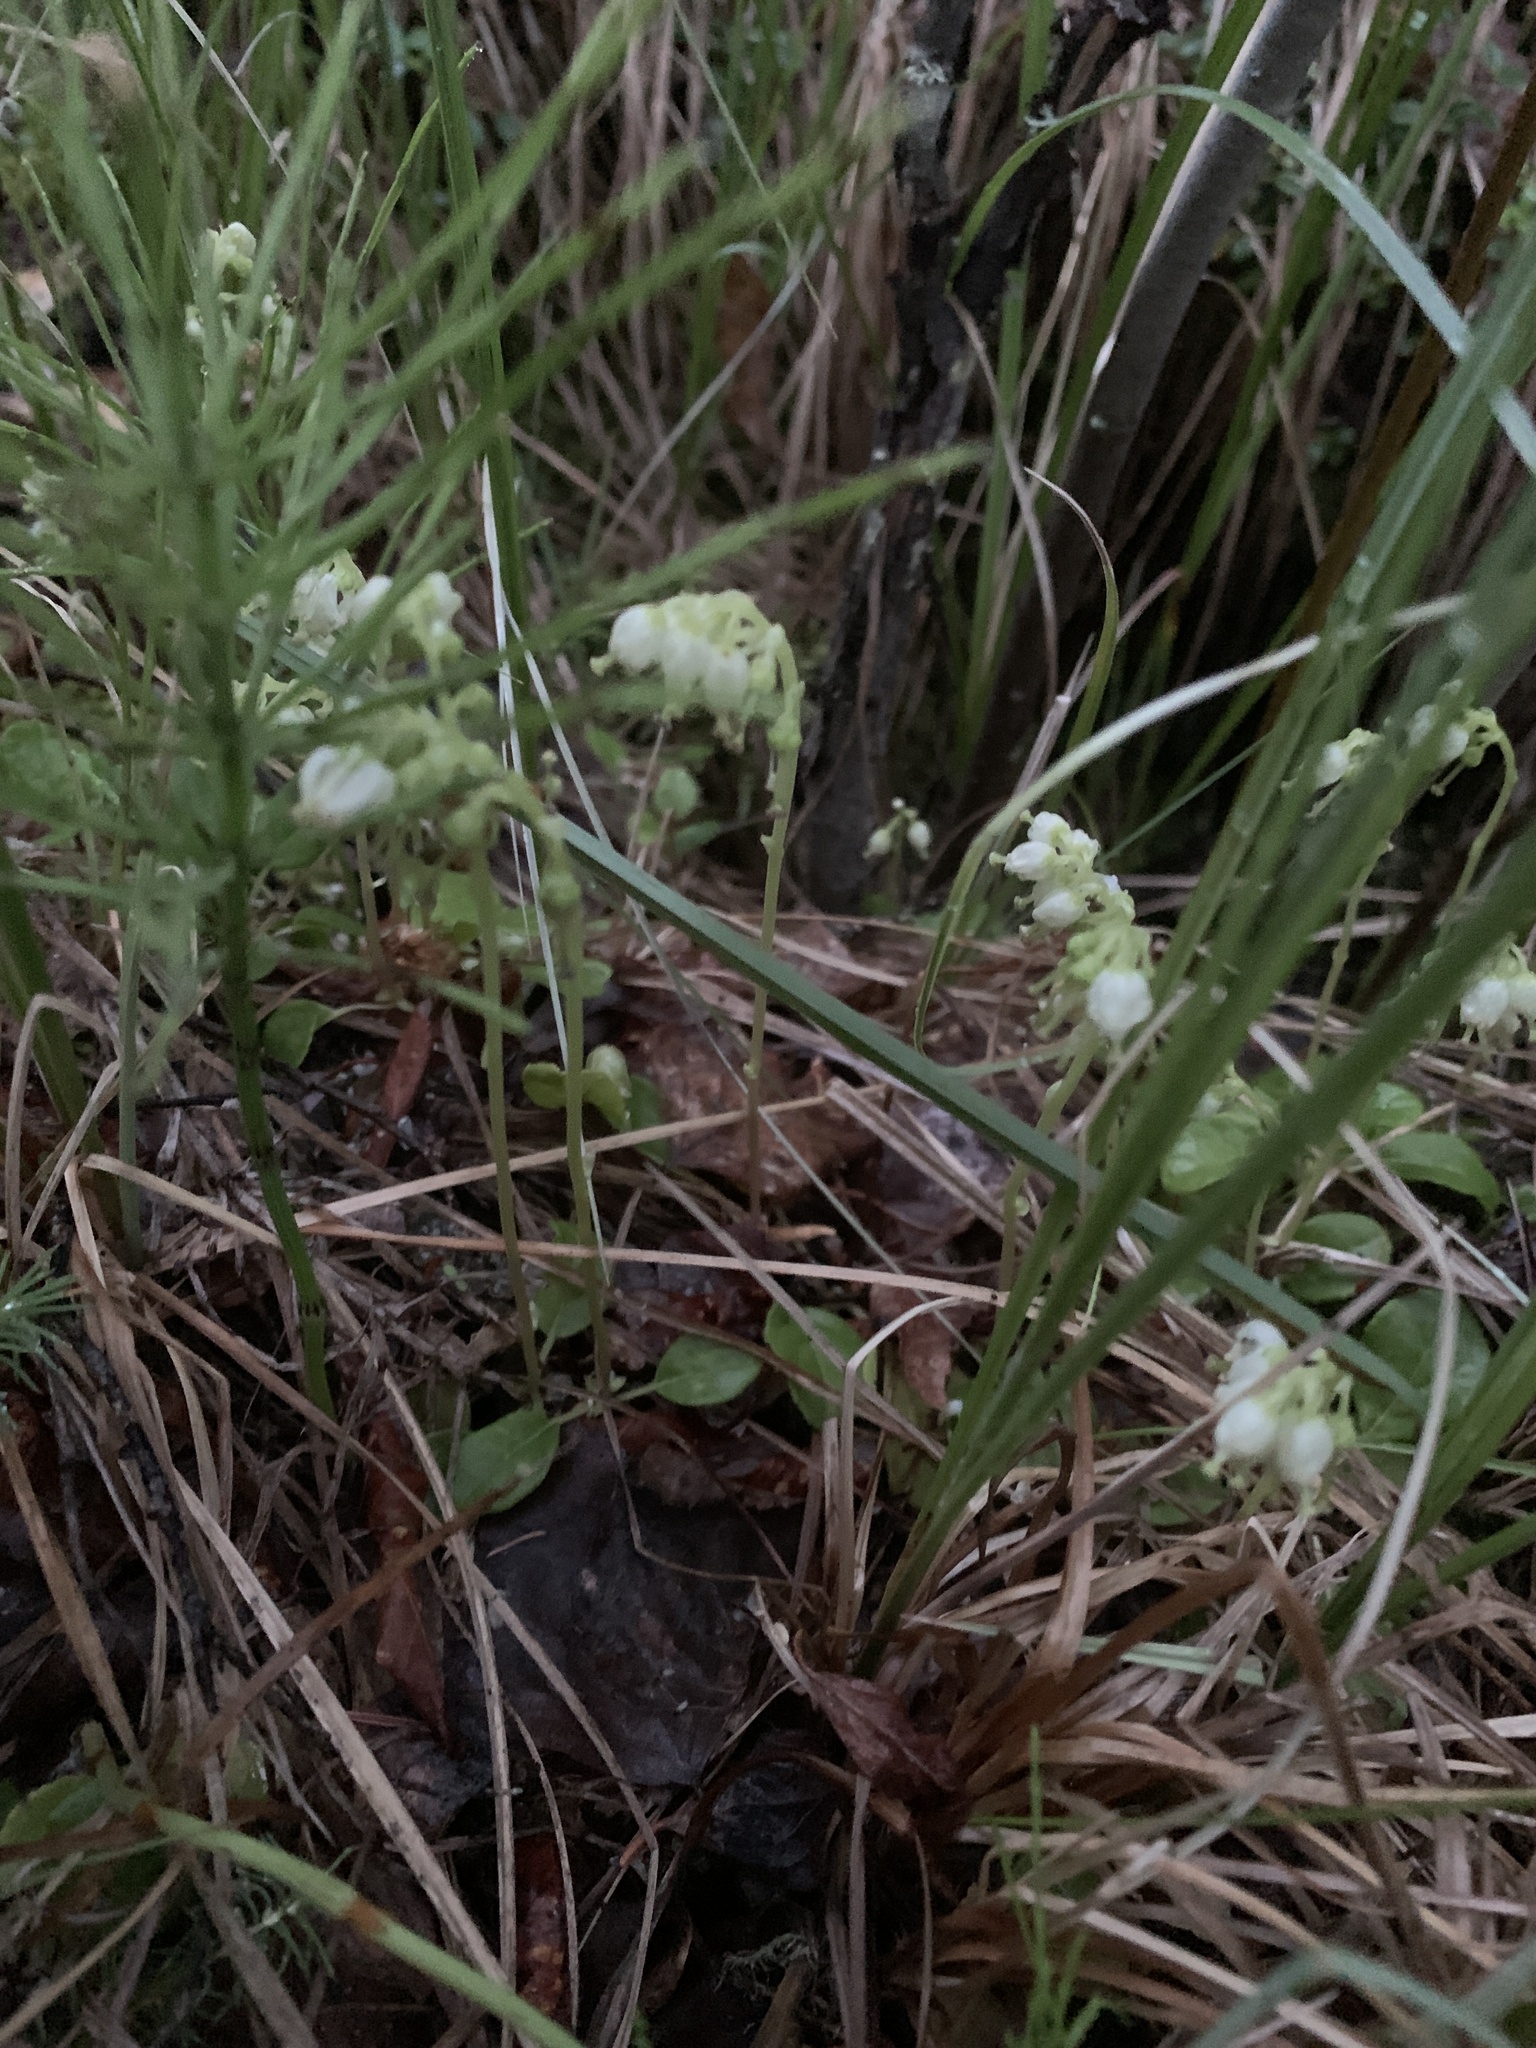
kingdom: Plantae
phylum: Tracheophyta
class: Magnoliopsida
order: Ericales
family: Ericaceae
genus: Orthilia
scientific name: Orthilia secunda
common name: One-sided orthilia
